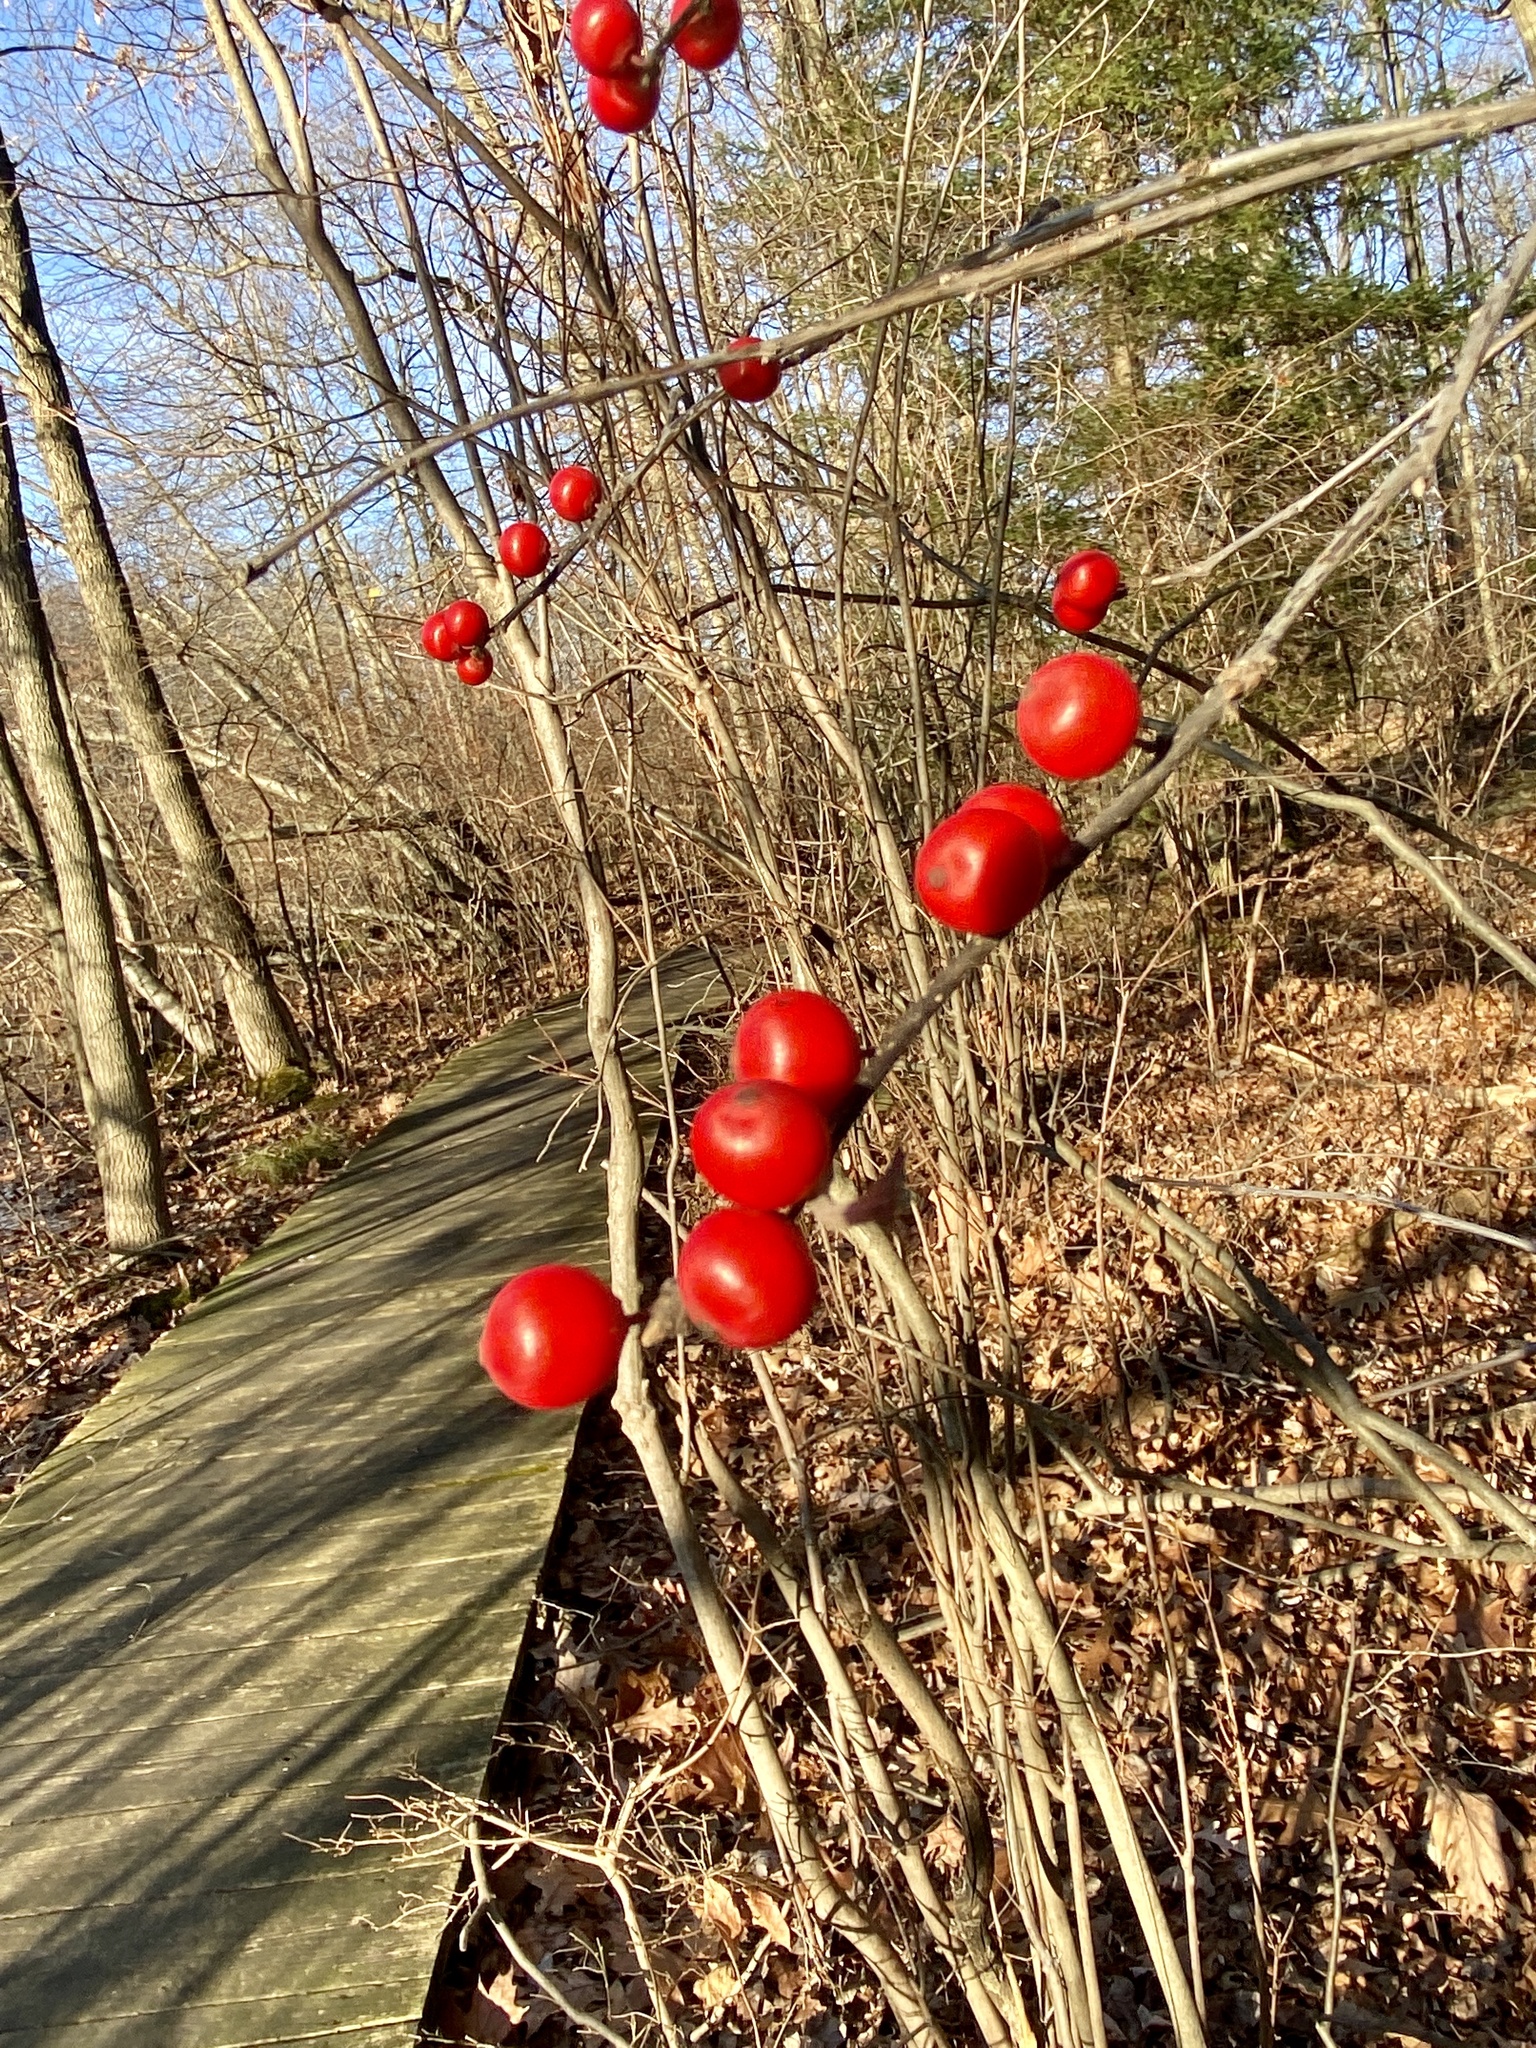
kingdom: Plantae
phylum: Tracheophyta
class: Magnoliopsida
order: Aquifoliales
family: Aquifoliaceae
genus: Ilex
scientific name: Ilex verticillata
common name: Virginia winterberry
